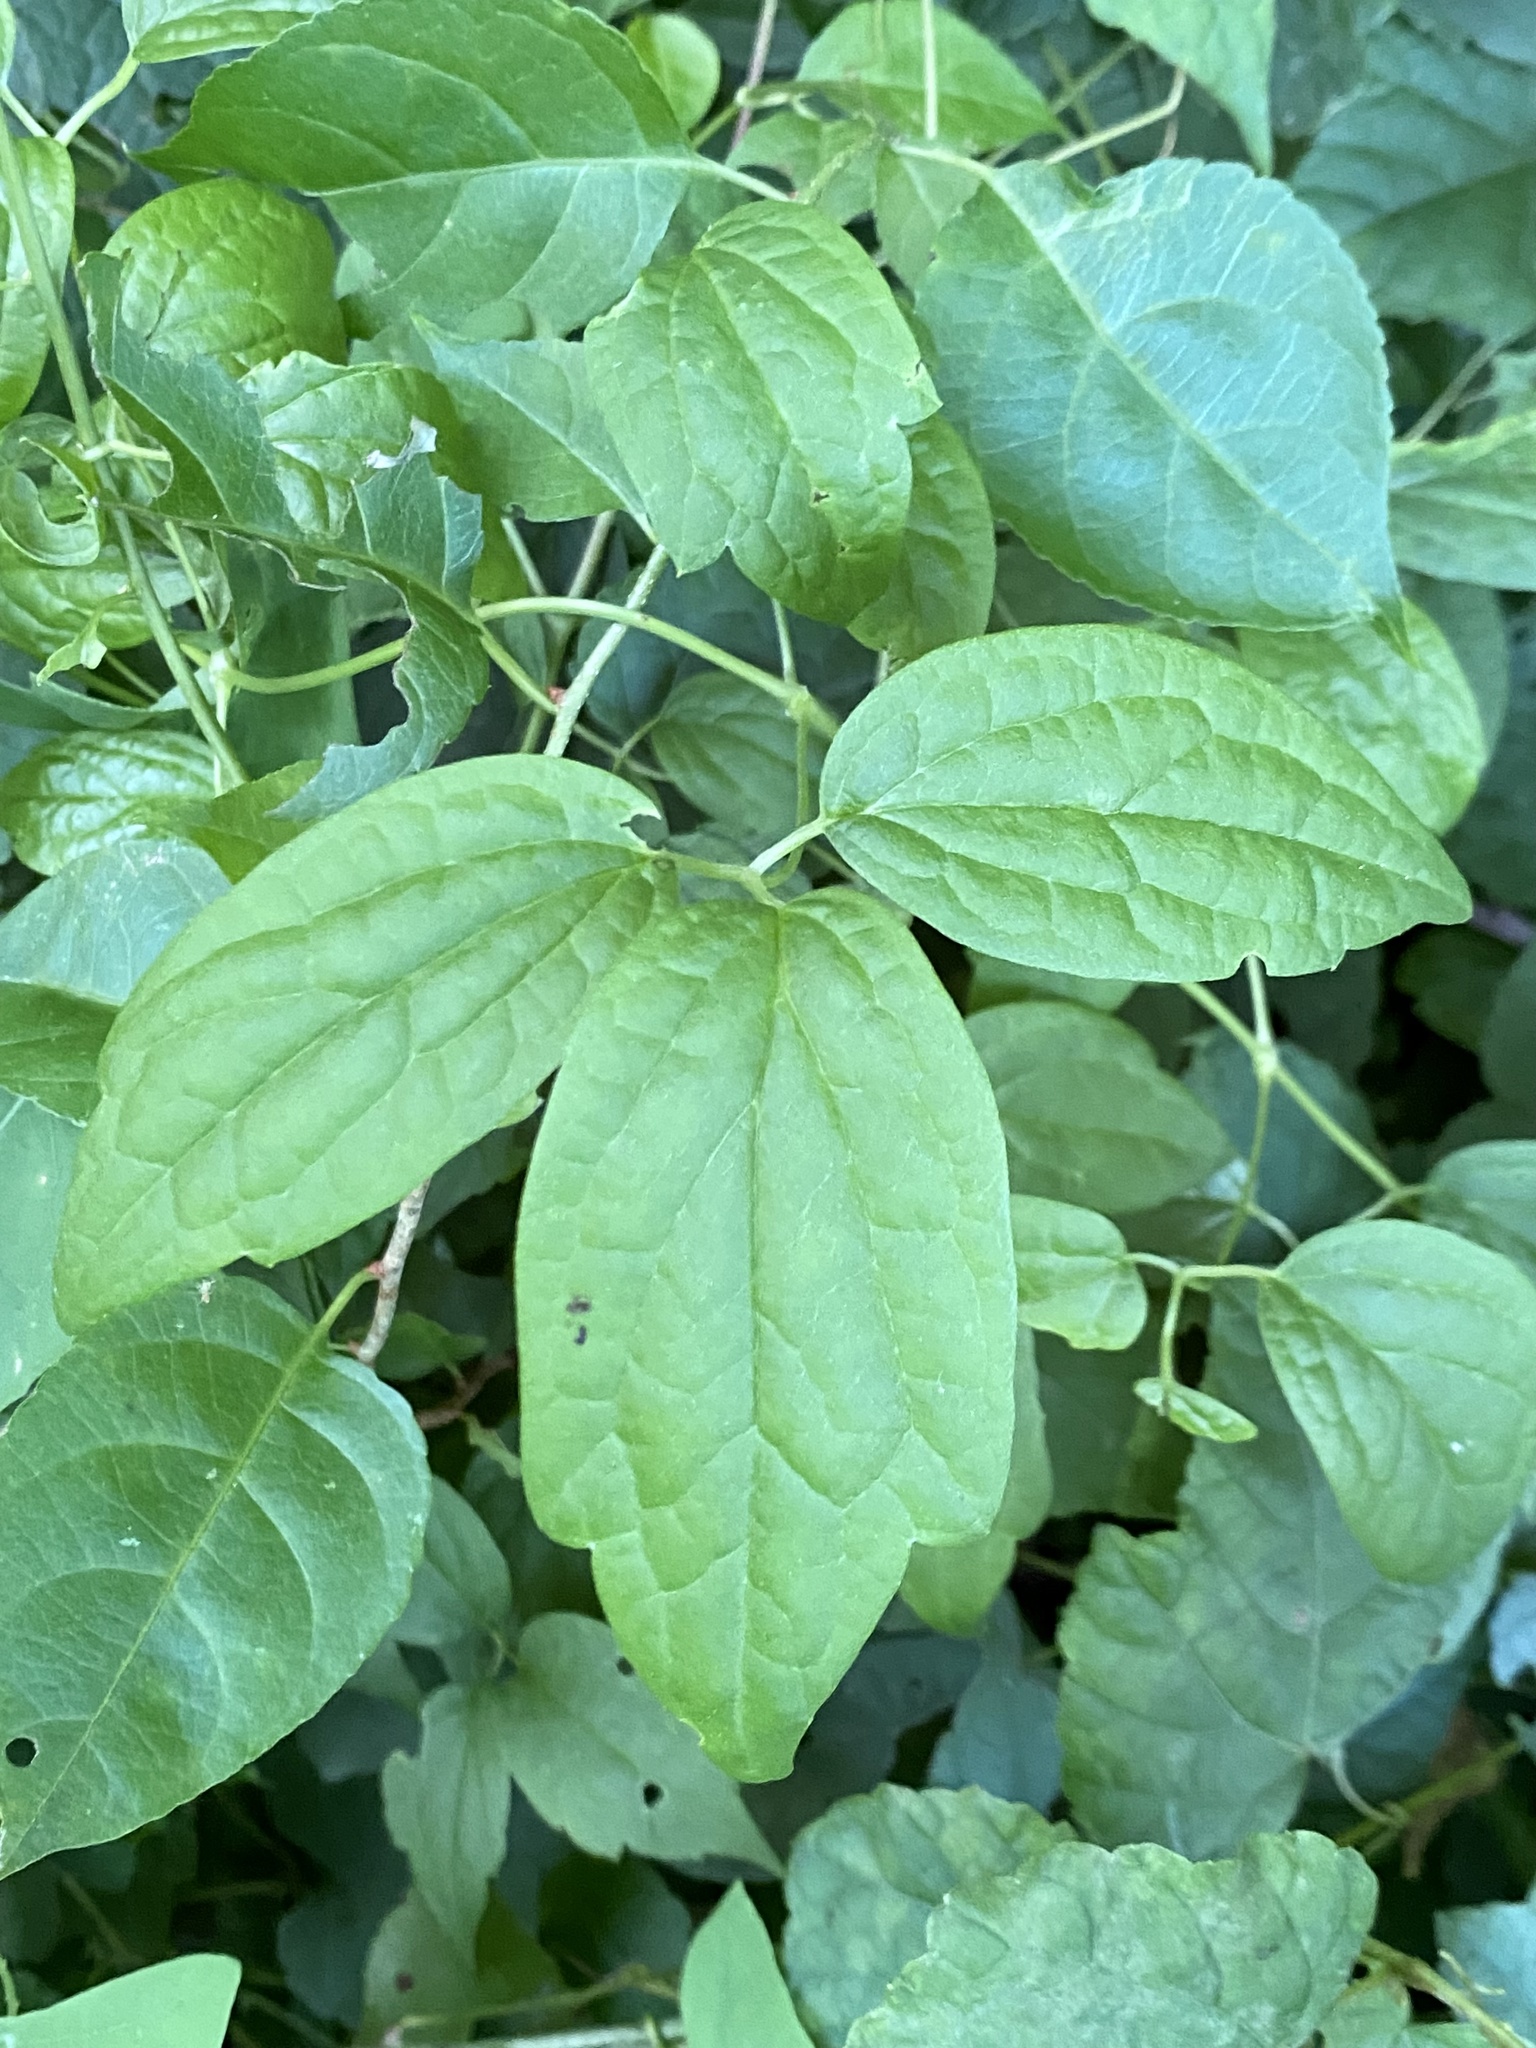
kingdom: Plantae
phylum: Tracheophyta
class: Magnoliopsida
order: Ranunculales
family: Ranunculaceae
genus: Clematis
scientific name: Clematis virginiana
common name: Virgin's-bower
